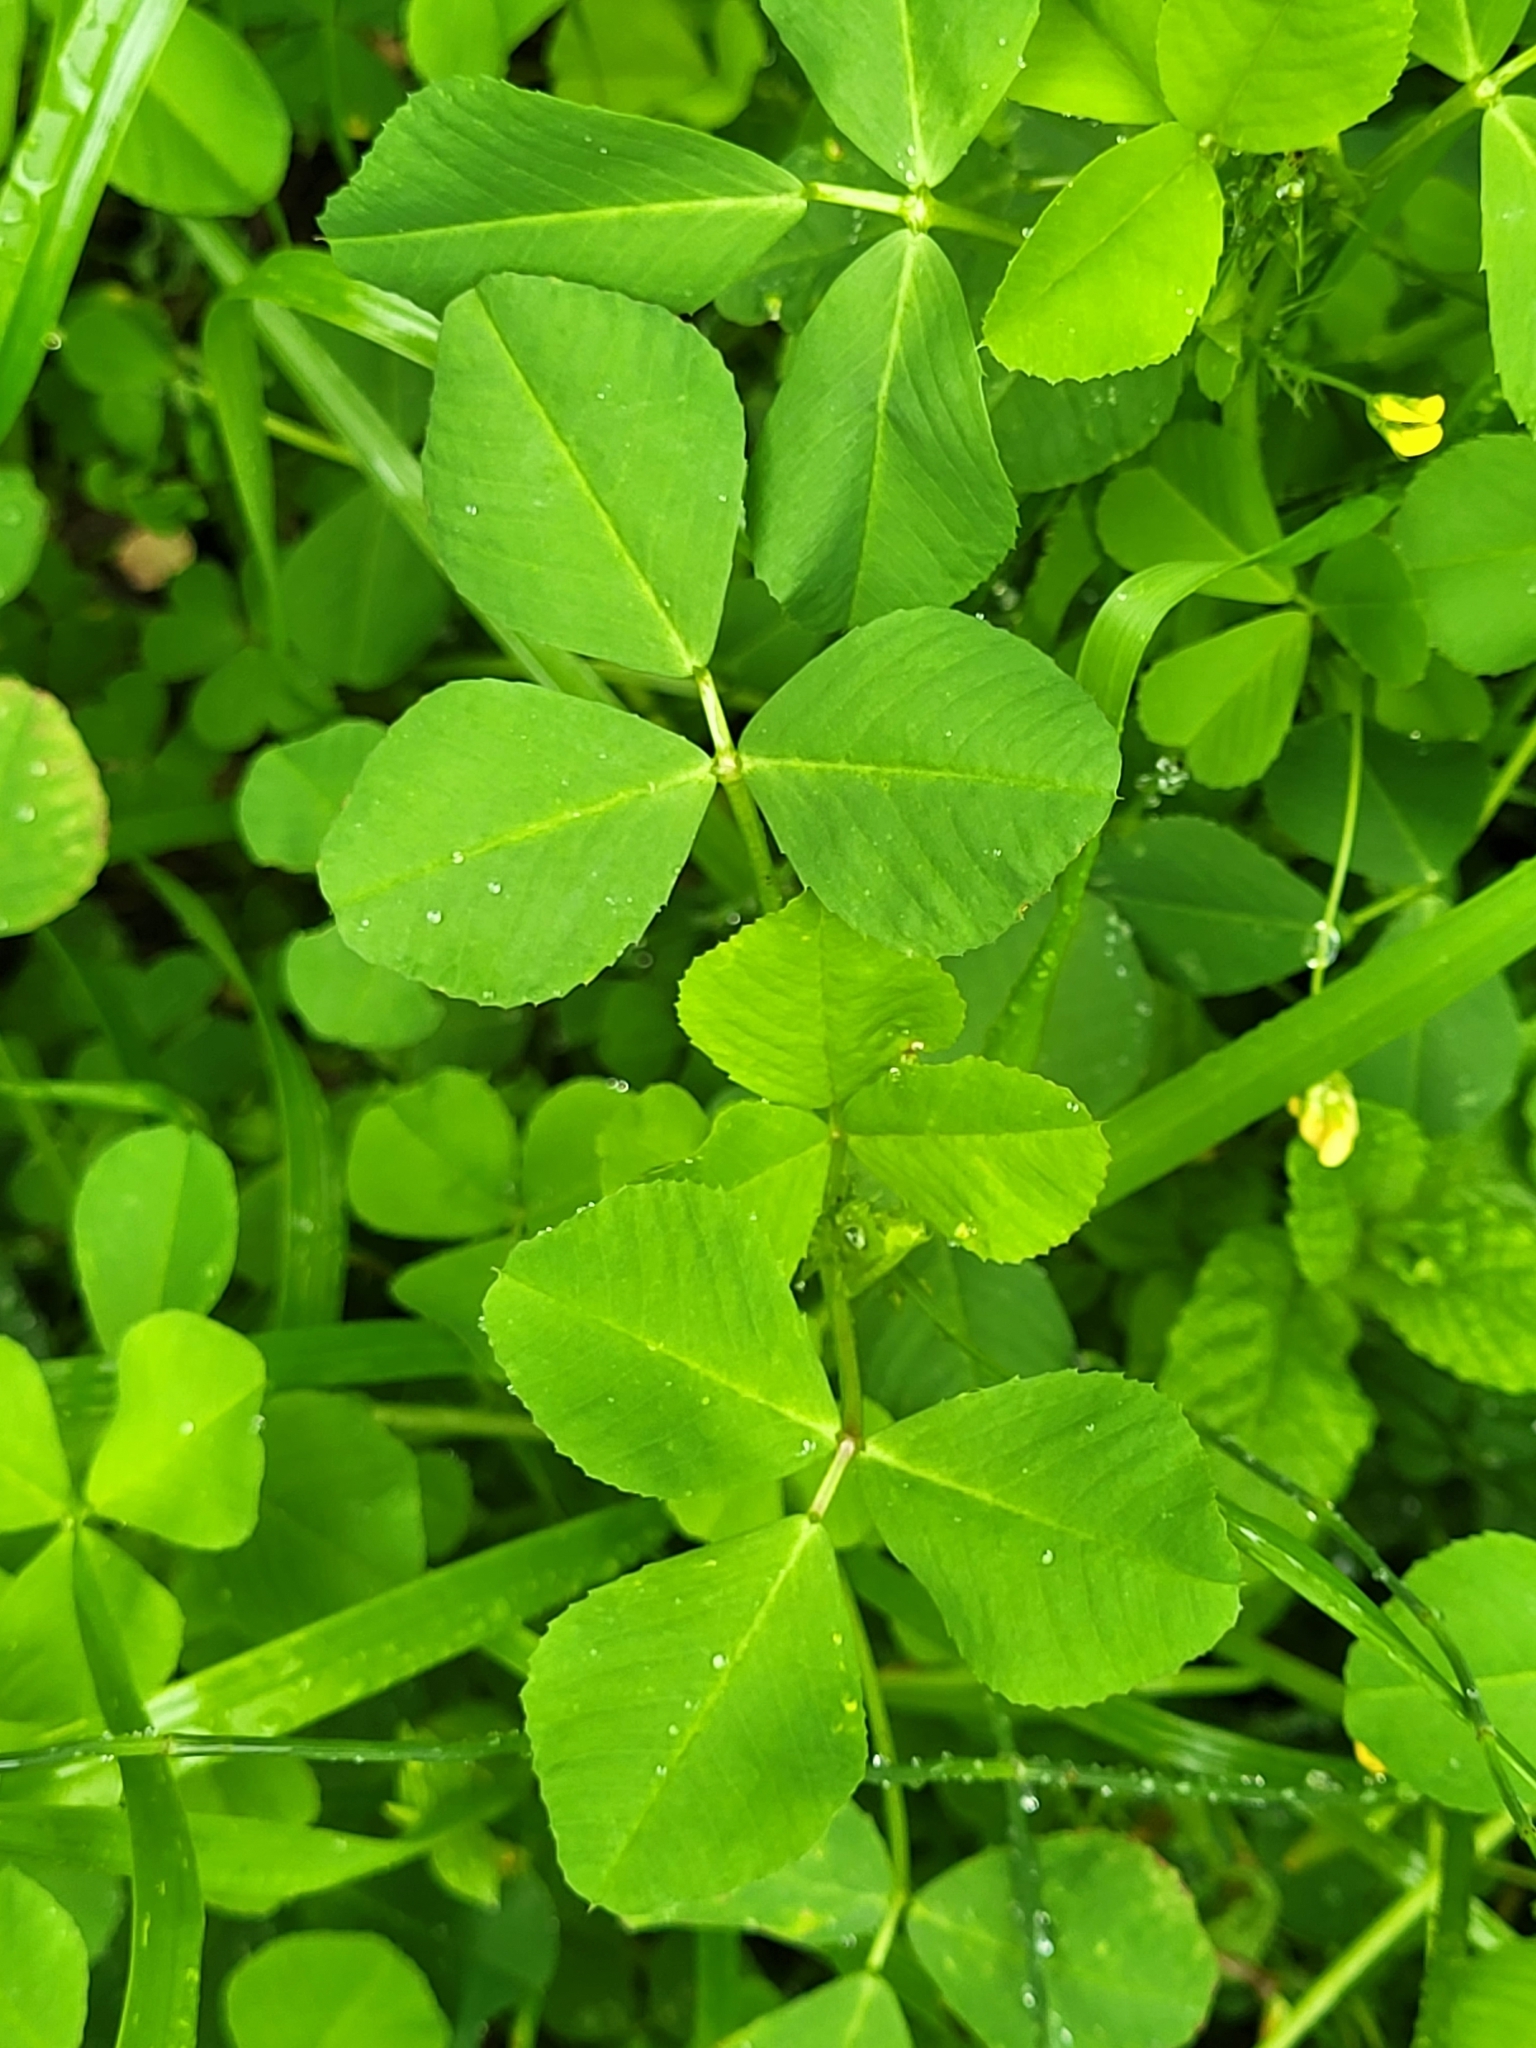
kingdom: Plantae
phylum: Tracheophyta
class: Magnoliopsida
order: Oxalidales
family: Oxalidaceae
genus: Oxalis
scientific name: Oxalis pes-caprae
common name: Bermuda-buttercup
